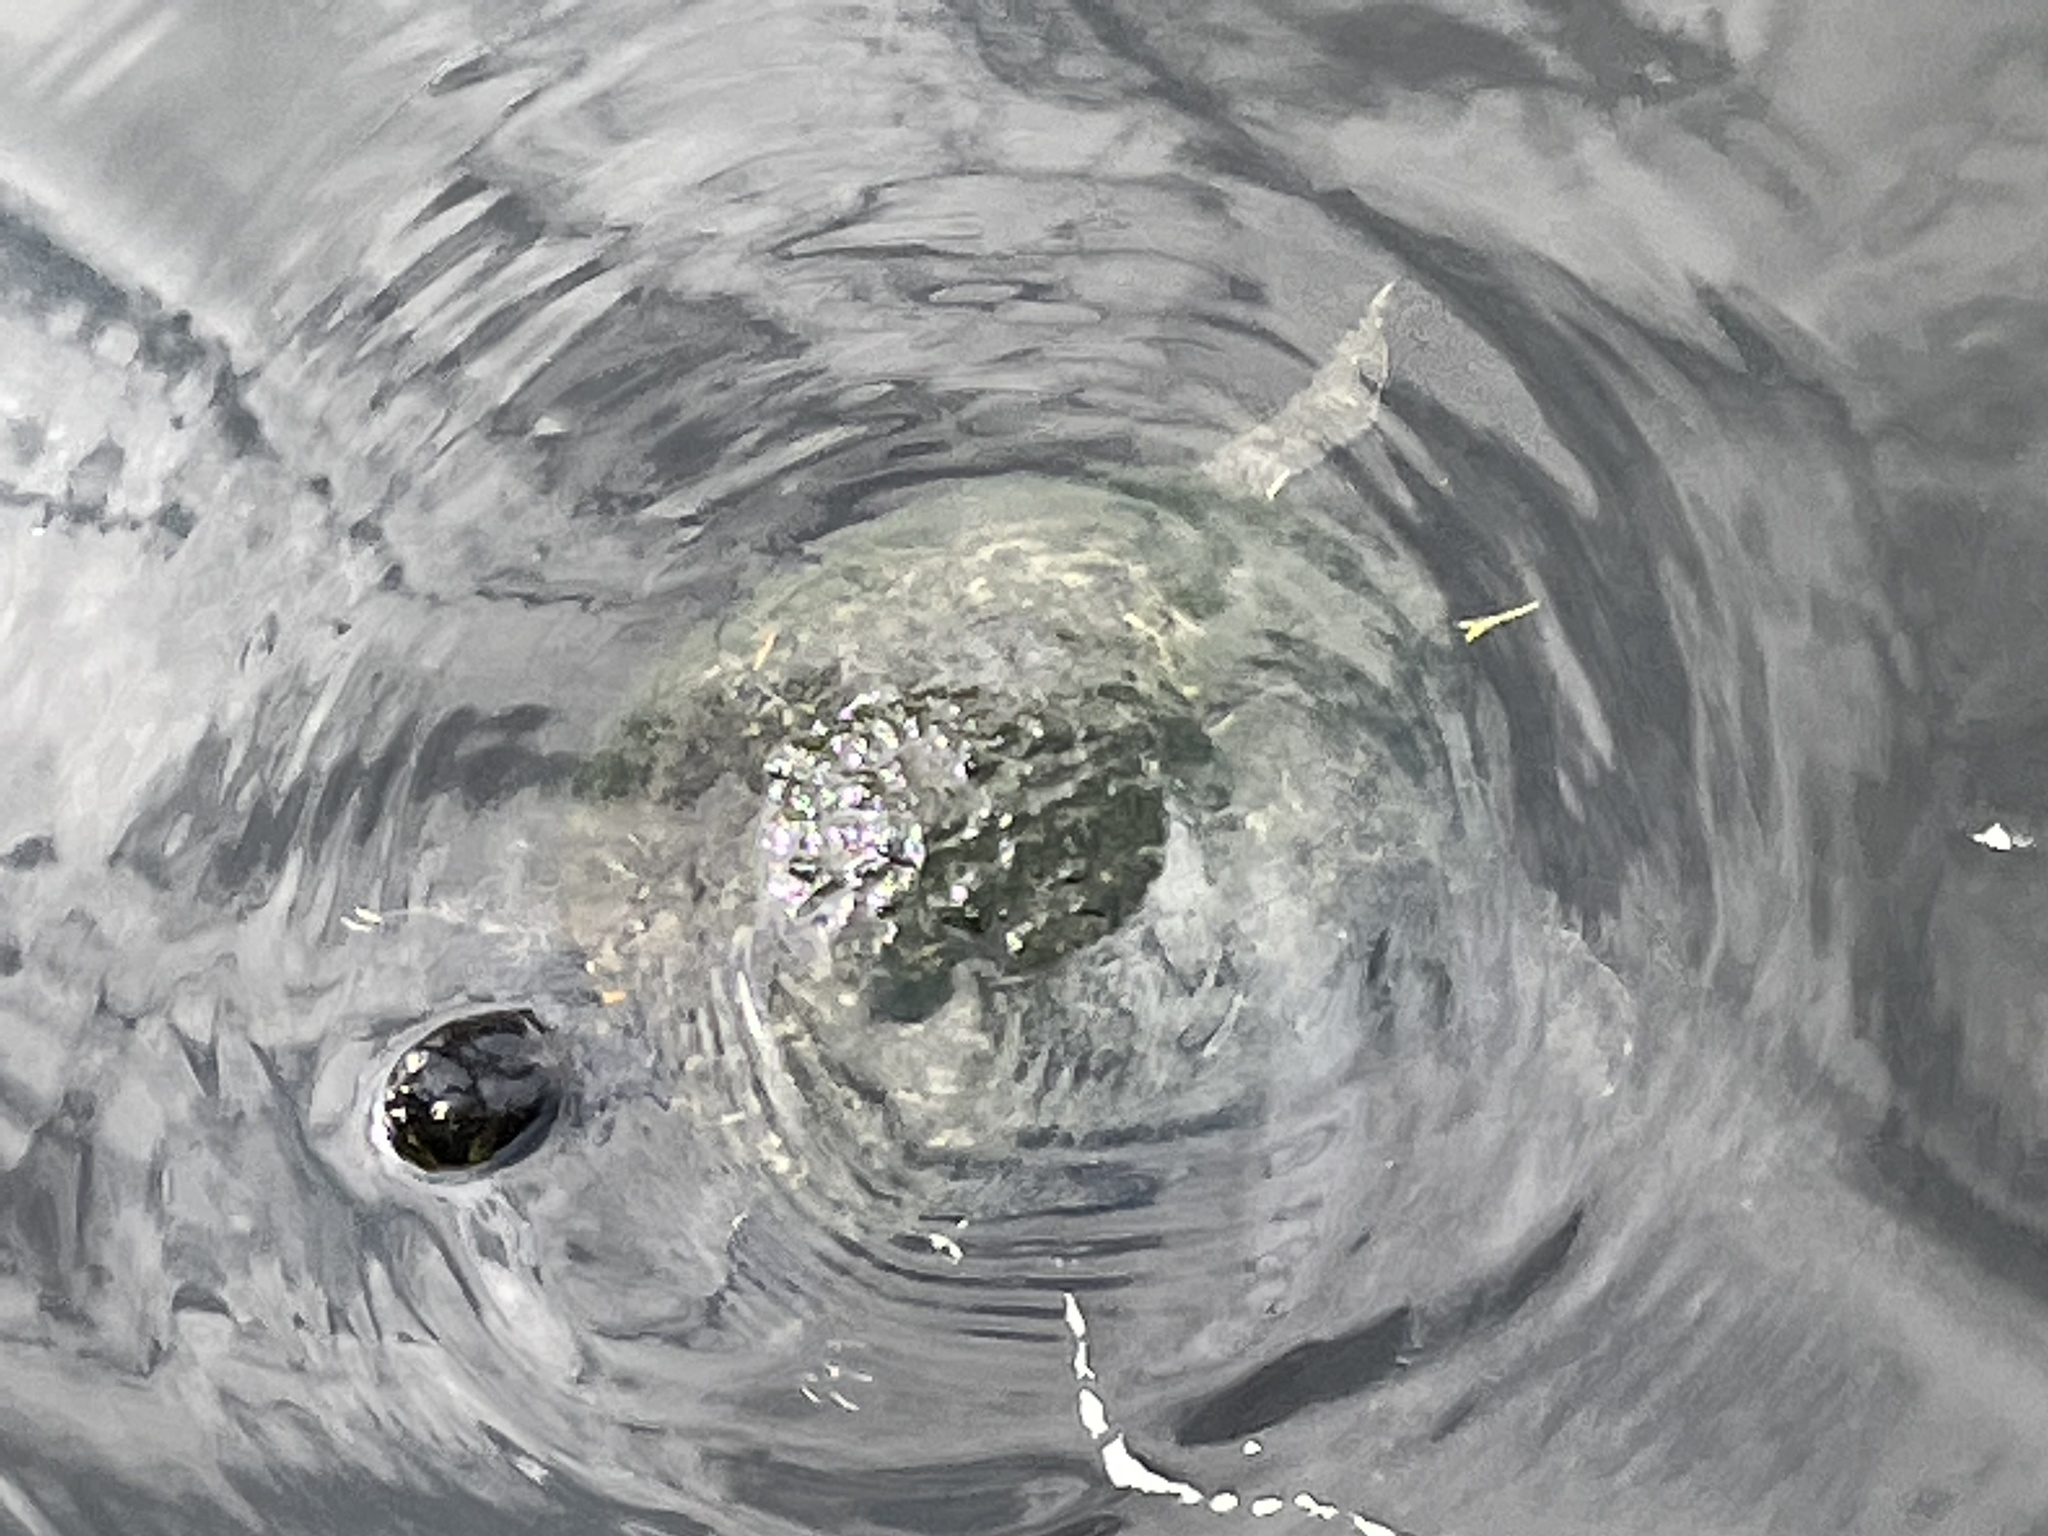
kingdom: Animalia
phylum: Chordata
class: Testudines
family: Emydidae
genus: Trachemys
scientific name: Trachemys scripta
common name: Slider
